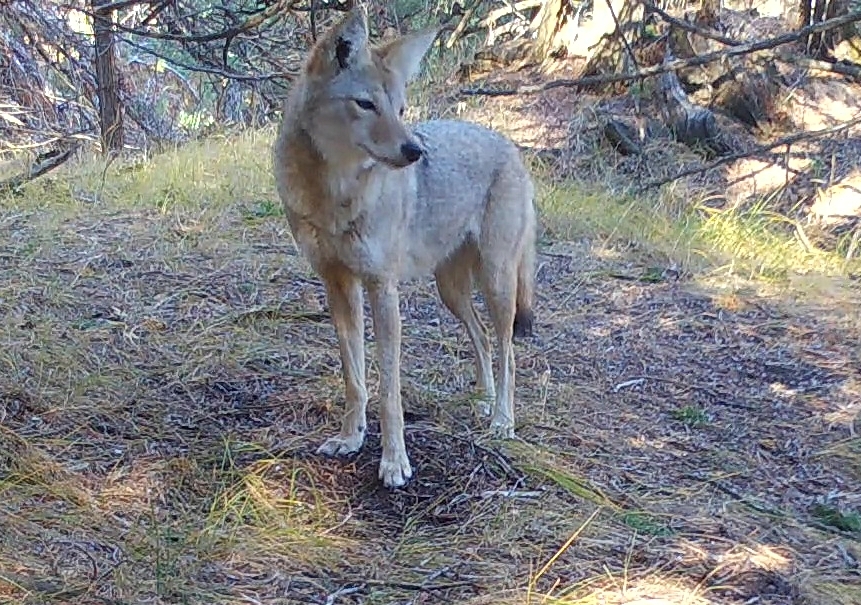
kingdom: Animalia
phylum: Chordata
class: Mammalia
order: Carnivora
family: Canidae
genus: Canis
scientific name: Canis latrans
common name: Coyote
